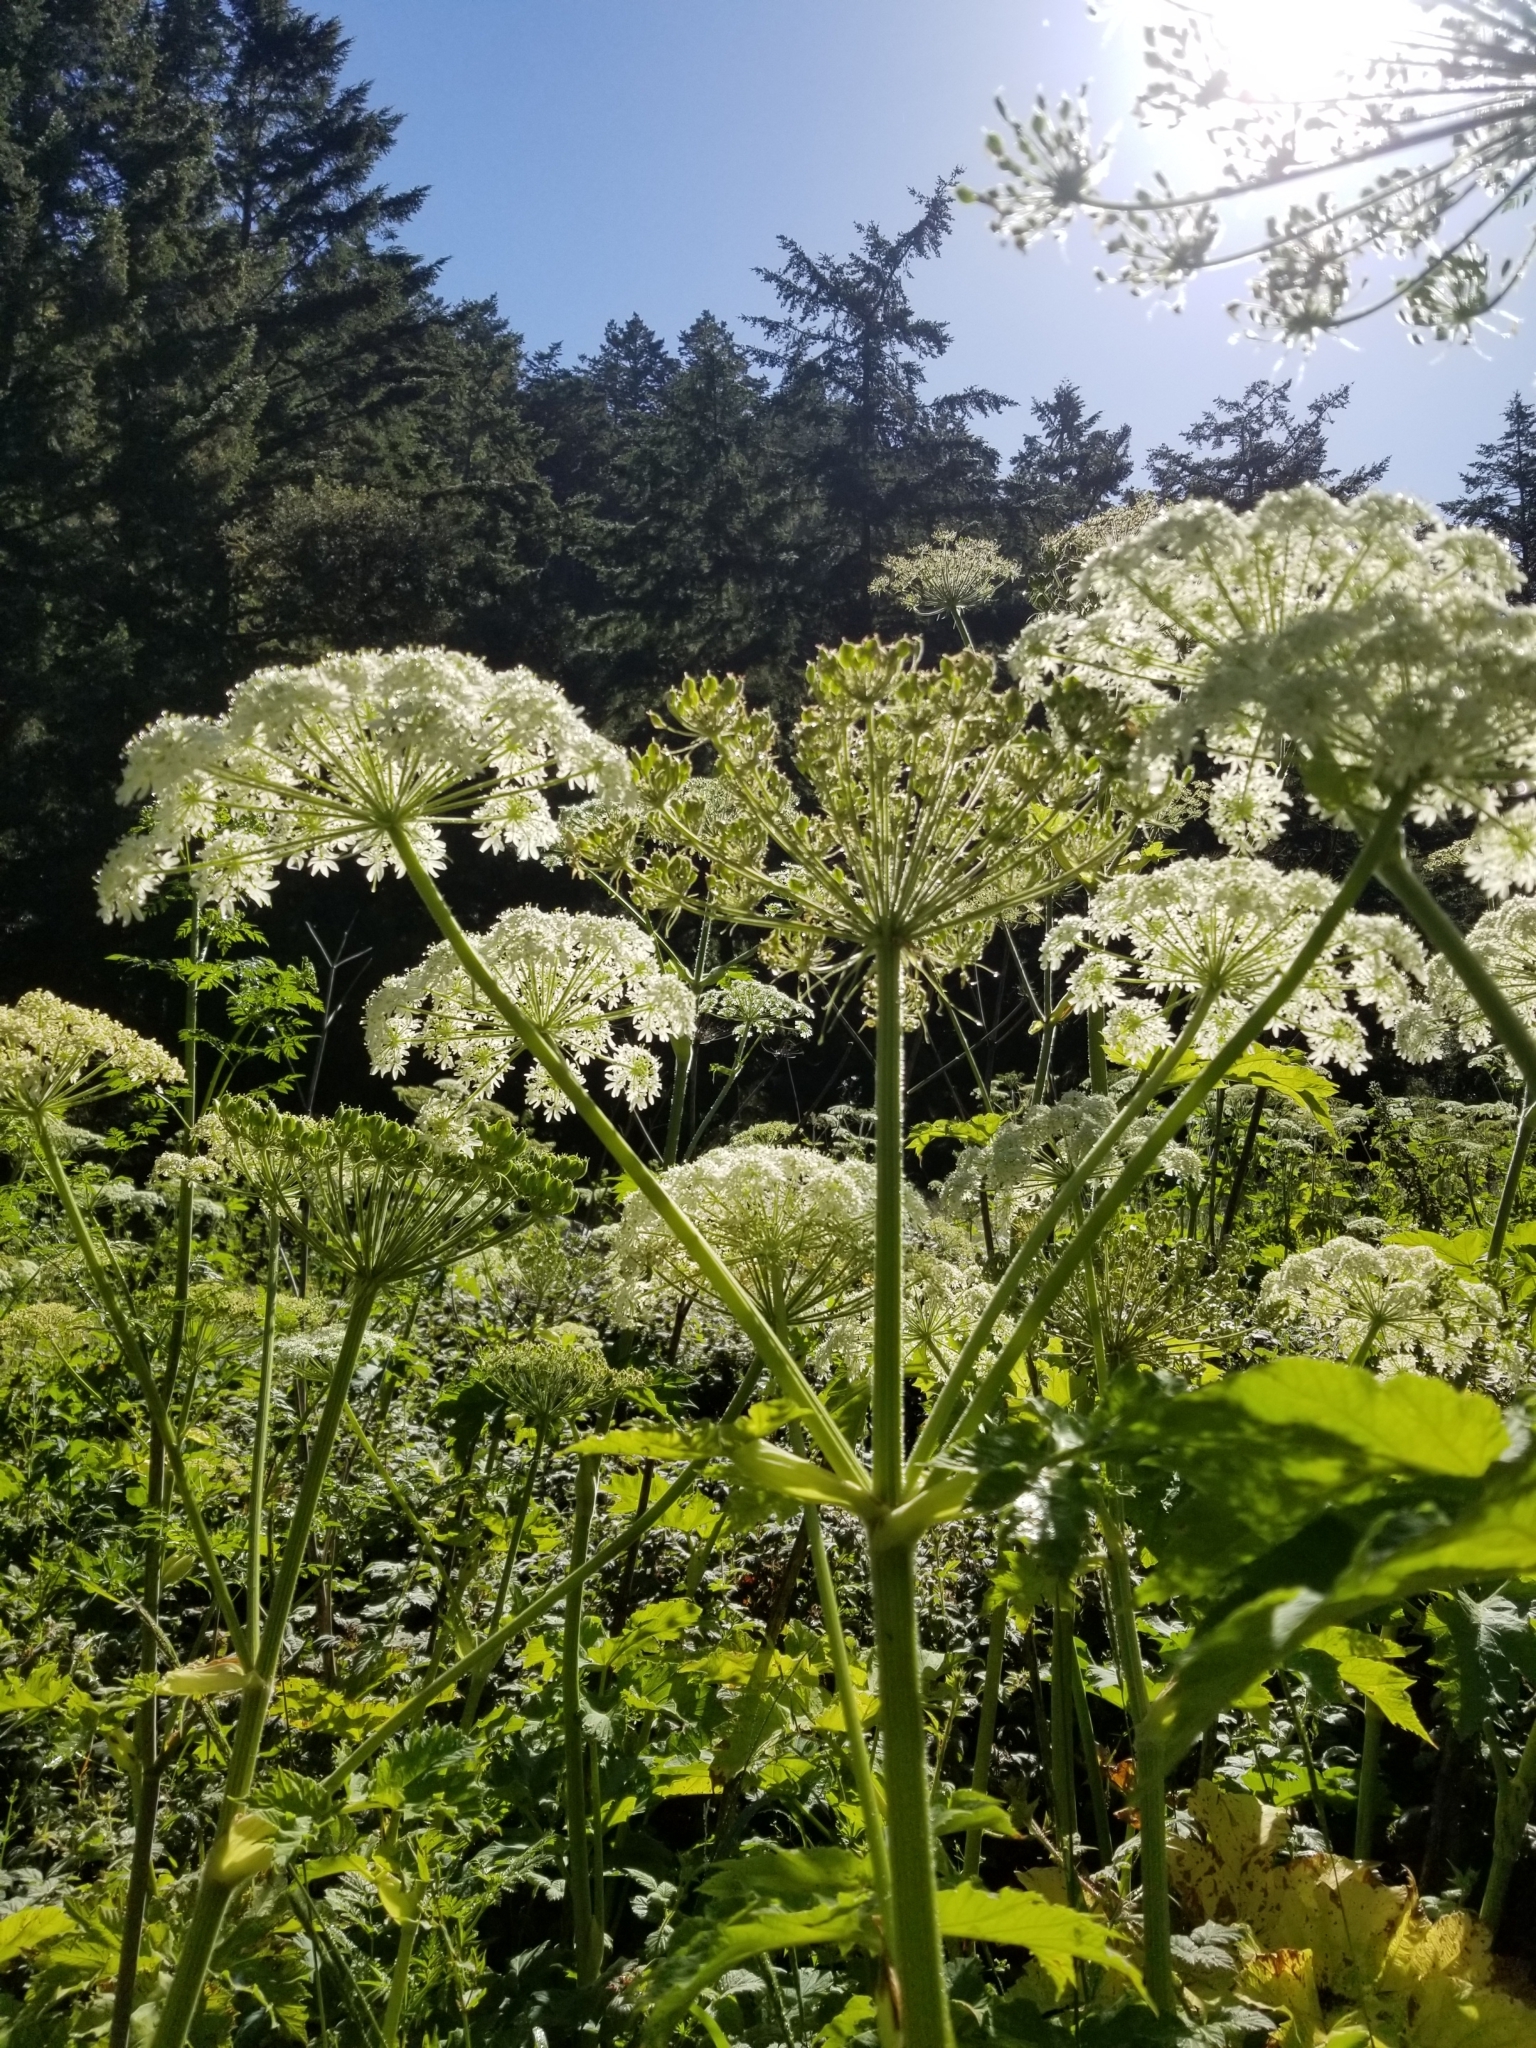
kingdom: Plantae
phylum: Tracheophyta
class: Magnoliopsida
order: Apiales
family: Apiaceae
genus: Heracleum
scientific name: Heracleum maximum
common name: American cow parsnip
